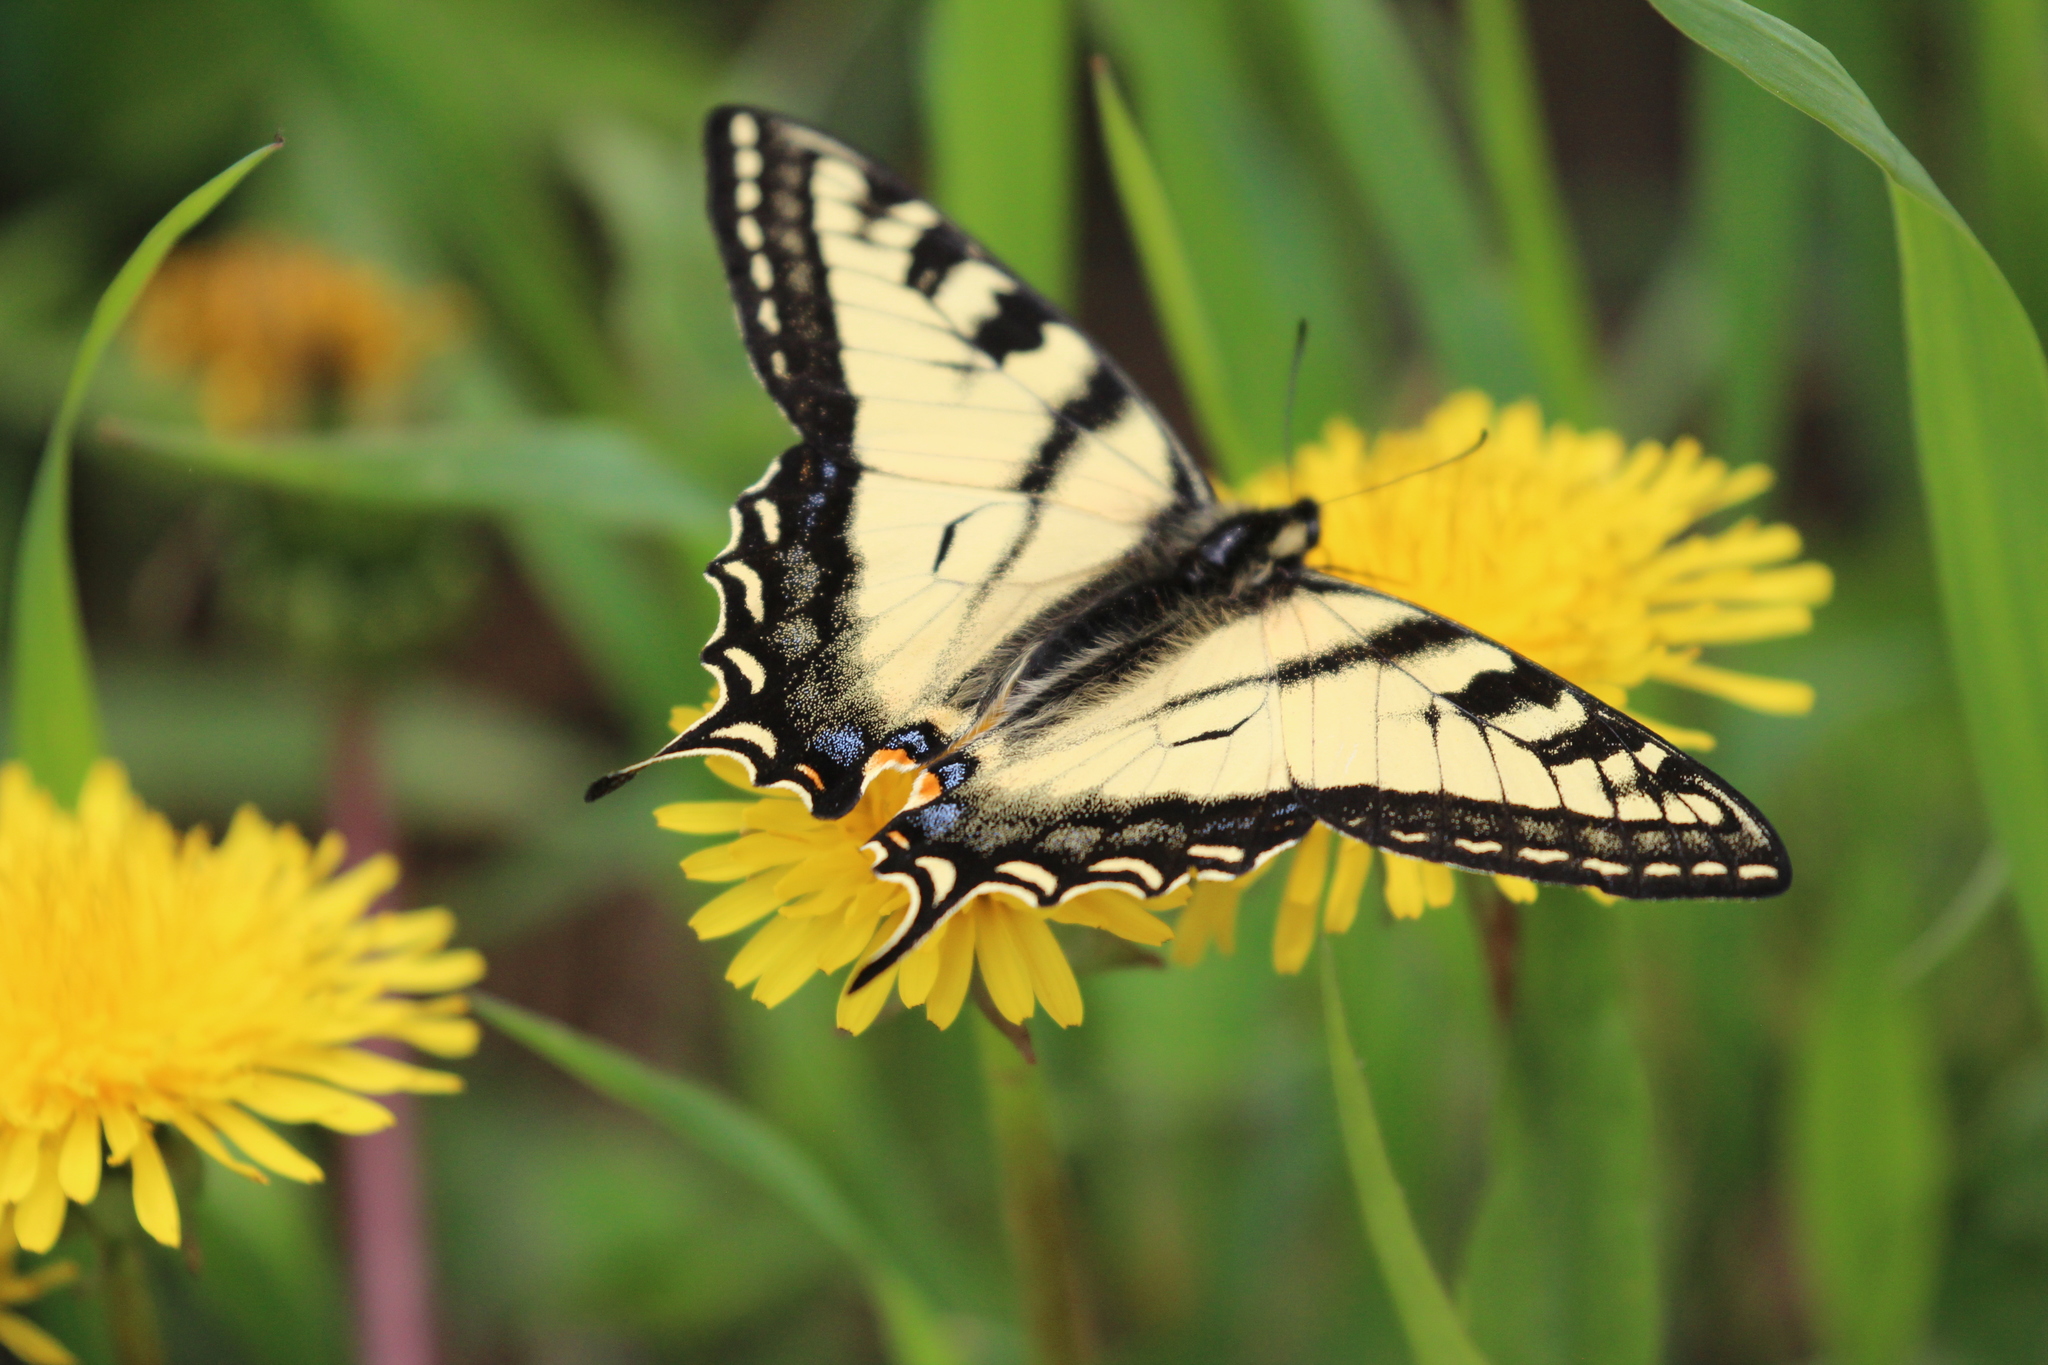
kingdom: Animalia
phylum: Arthropoda
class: Insecta
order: Lepidoptera
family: Papilionidae
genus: Papilio
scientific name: Papilio canadensis
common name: Canadian tiger swallowtail
